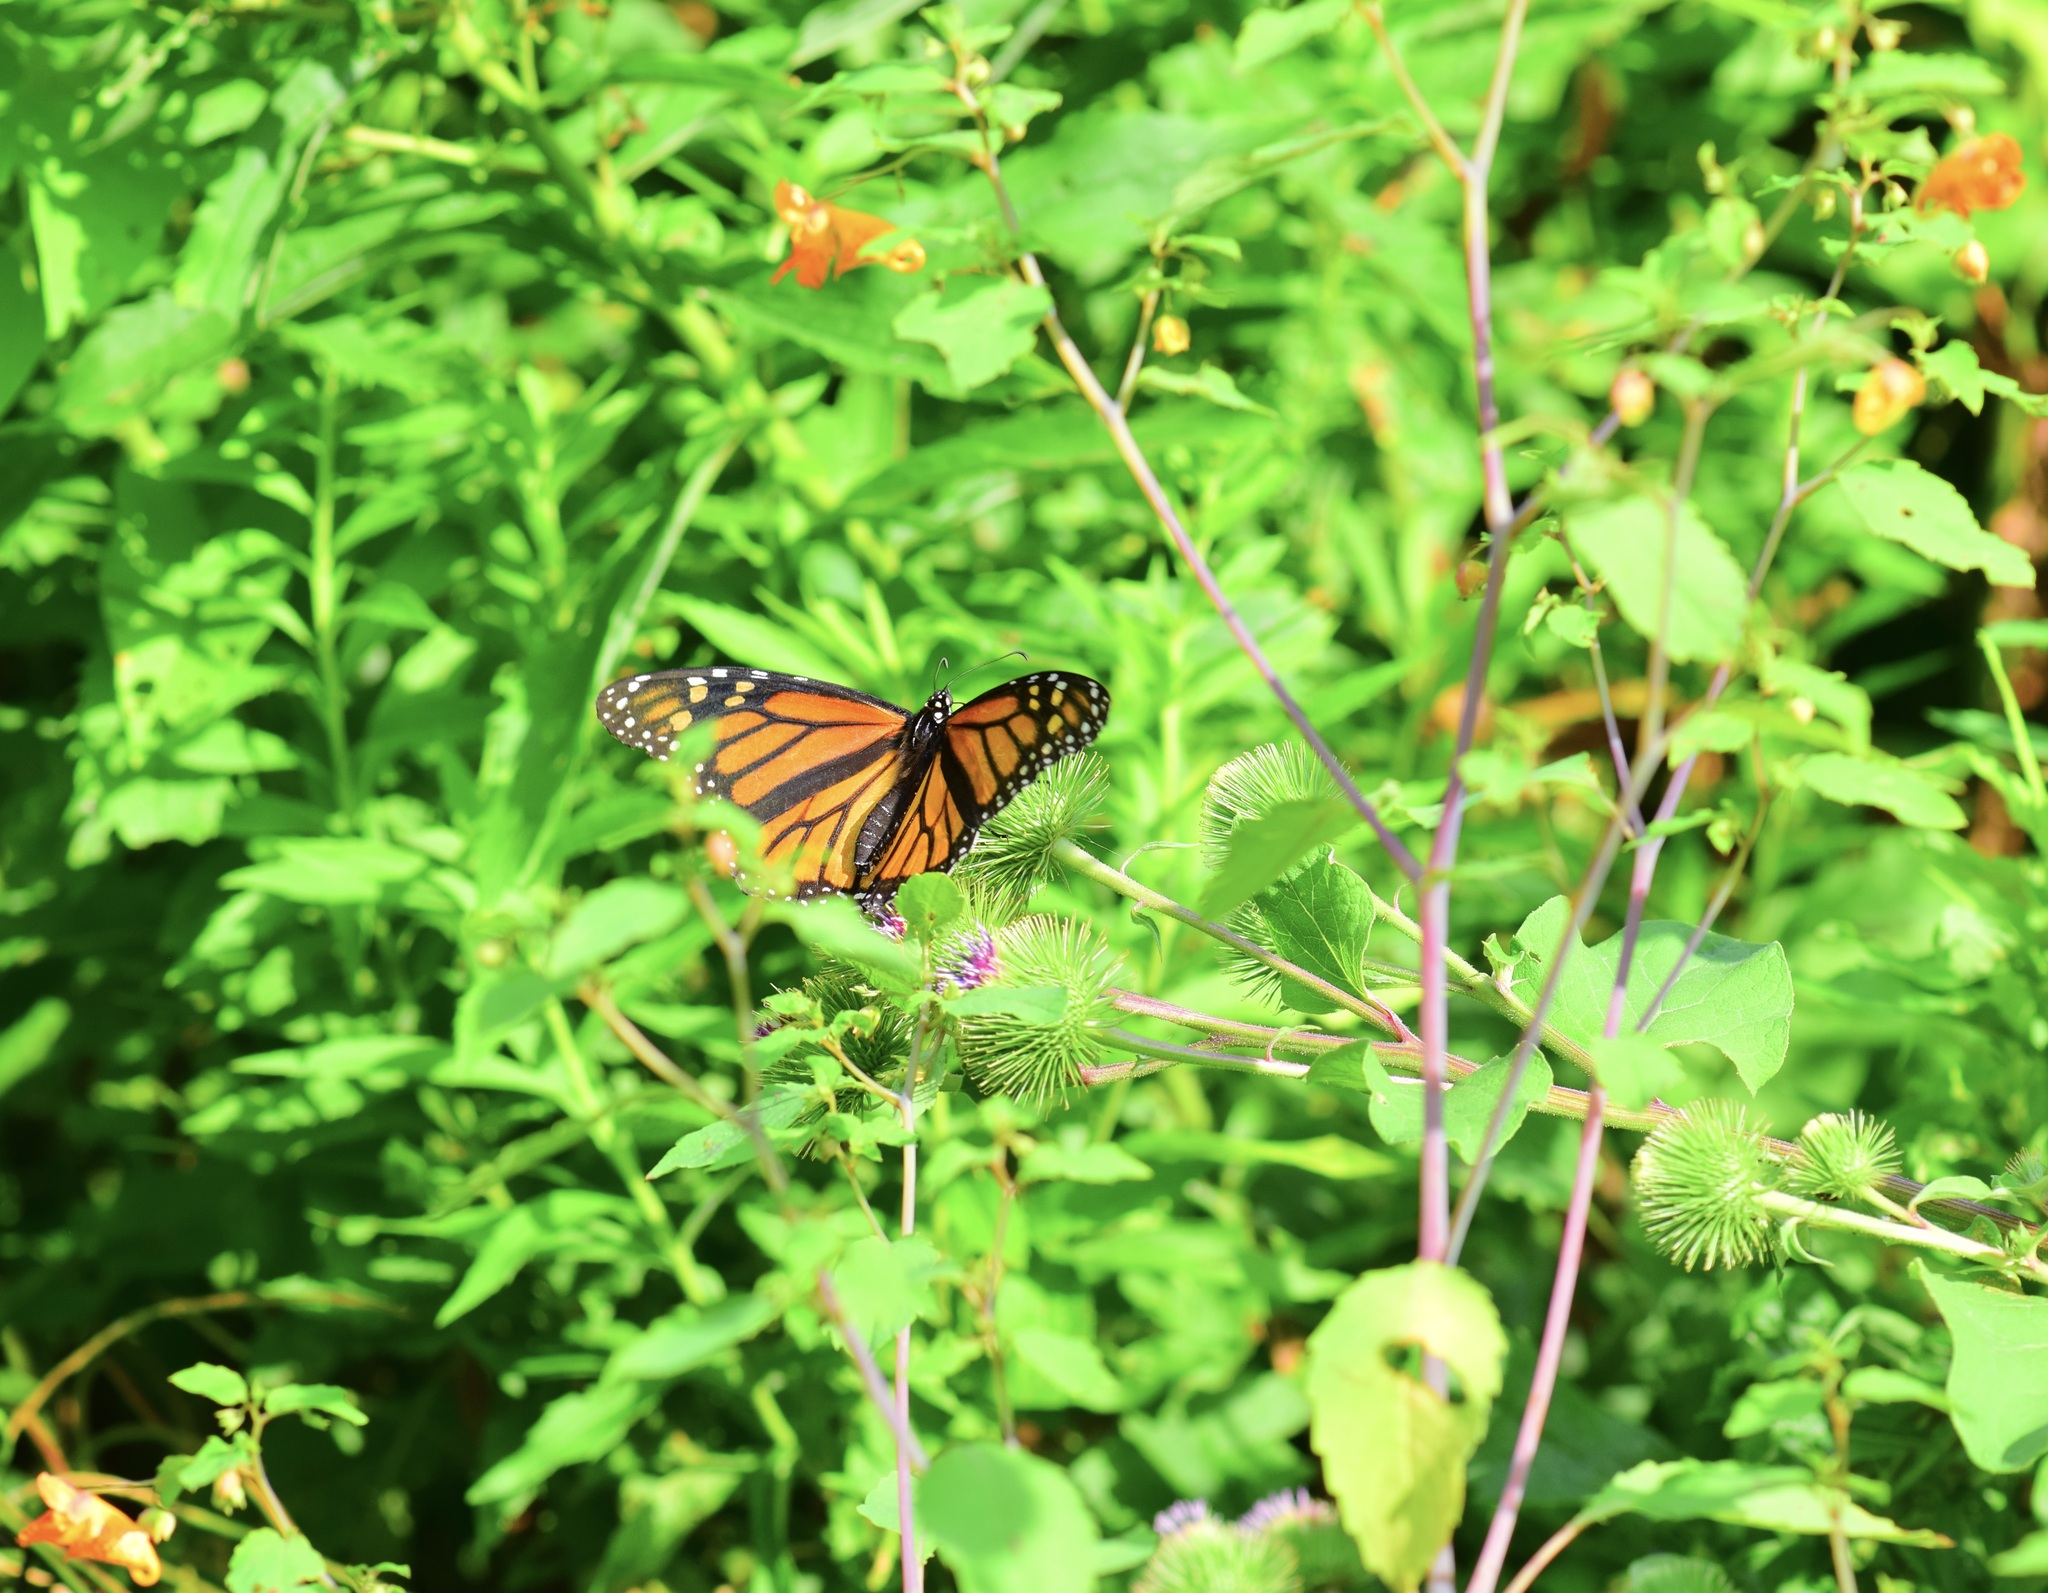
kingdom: Animalia
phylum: Arthropoda
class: Insecta
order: Lepidoptera
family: Nymphalidae
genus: Danaus
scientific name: Danaus plexippus
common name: Monarch
